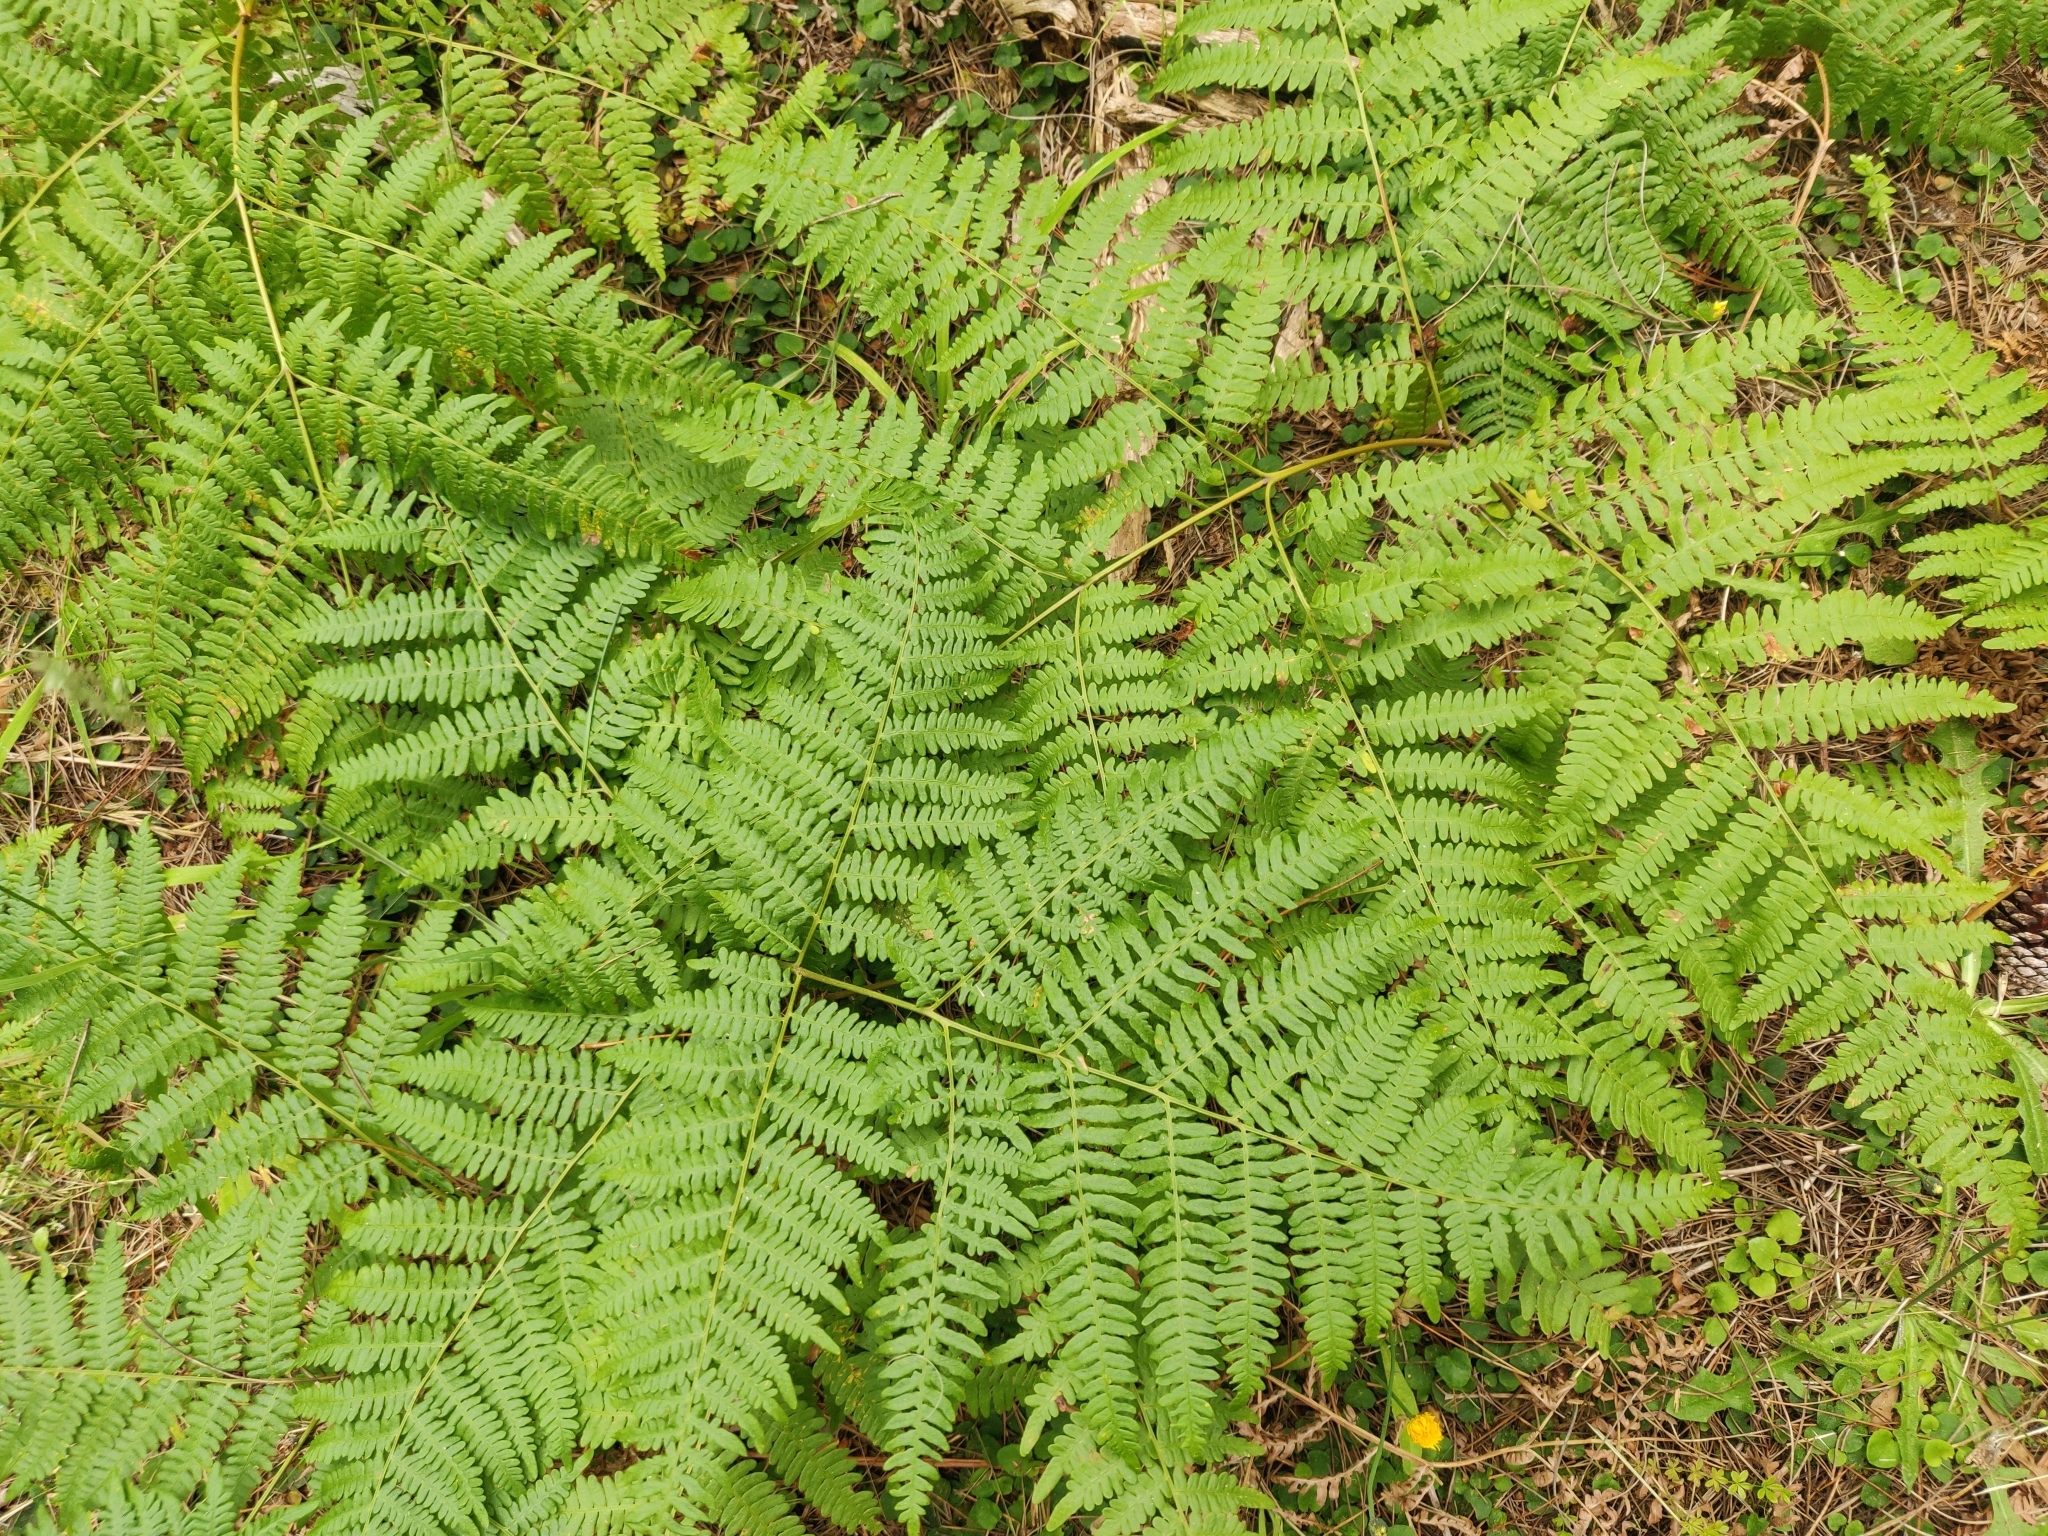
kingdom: Plantae
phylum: Tracheophyta
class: Polypodiopsida
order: Polypodiales
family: Dennstaedtiaceae
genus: Pteridium
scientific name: Pteridium aquilinum
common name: Bracken
